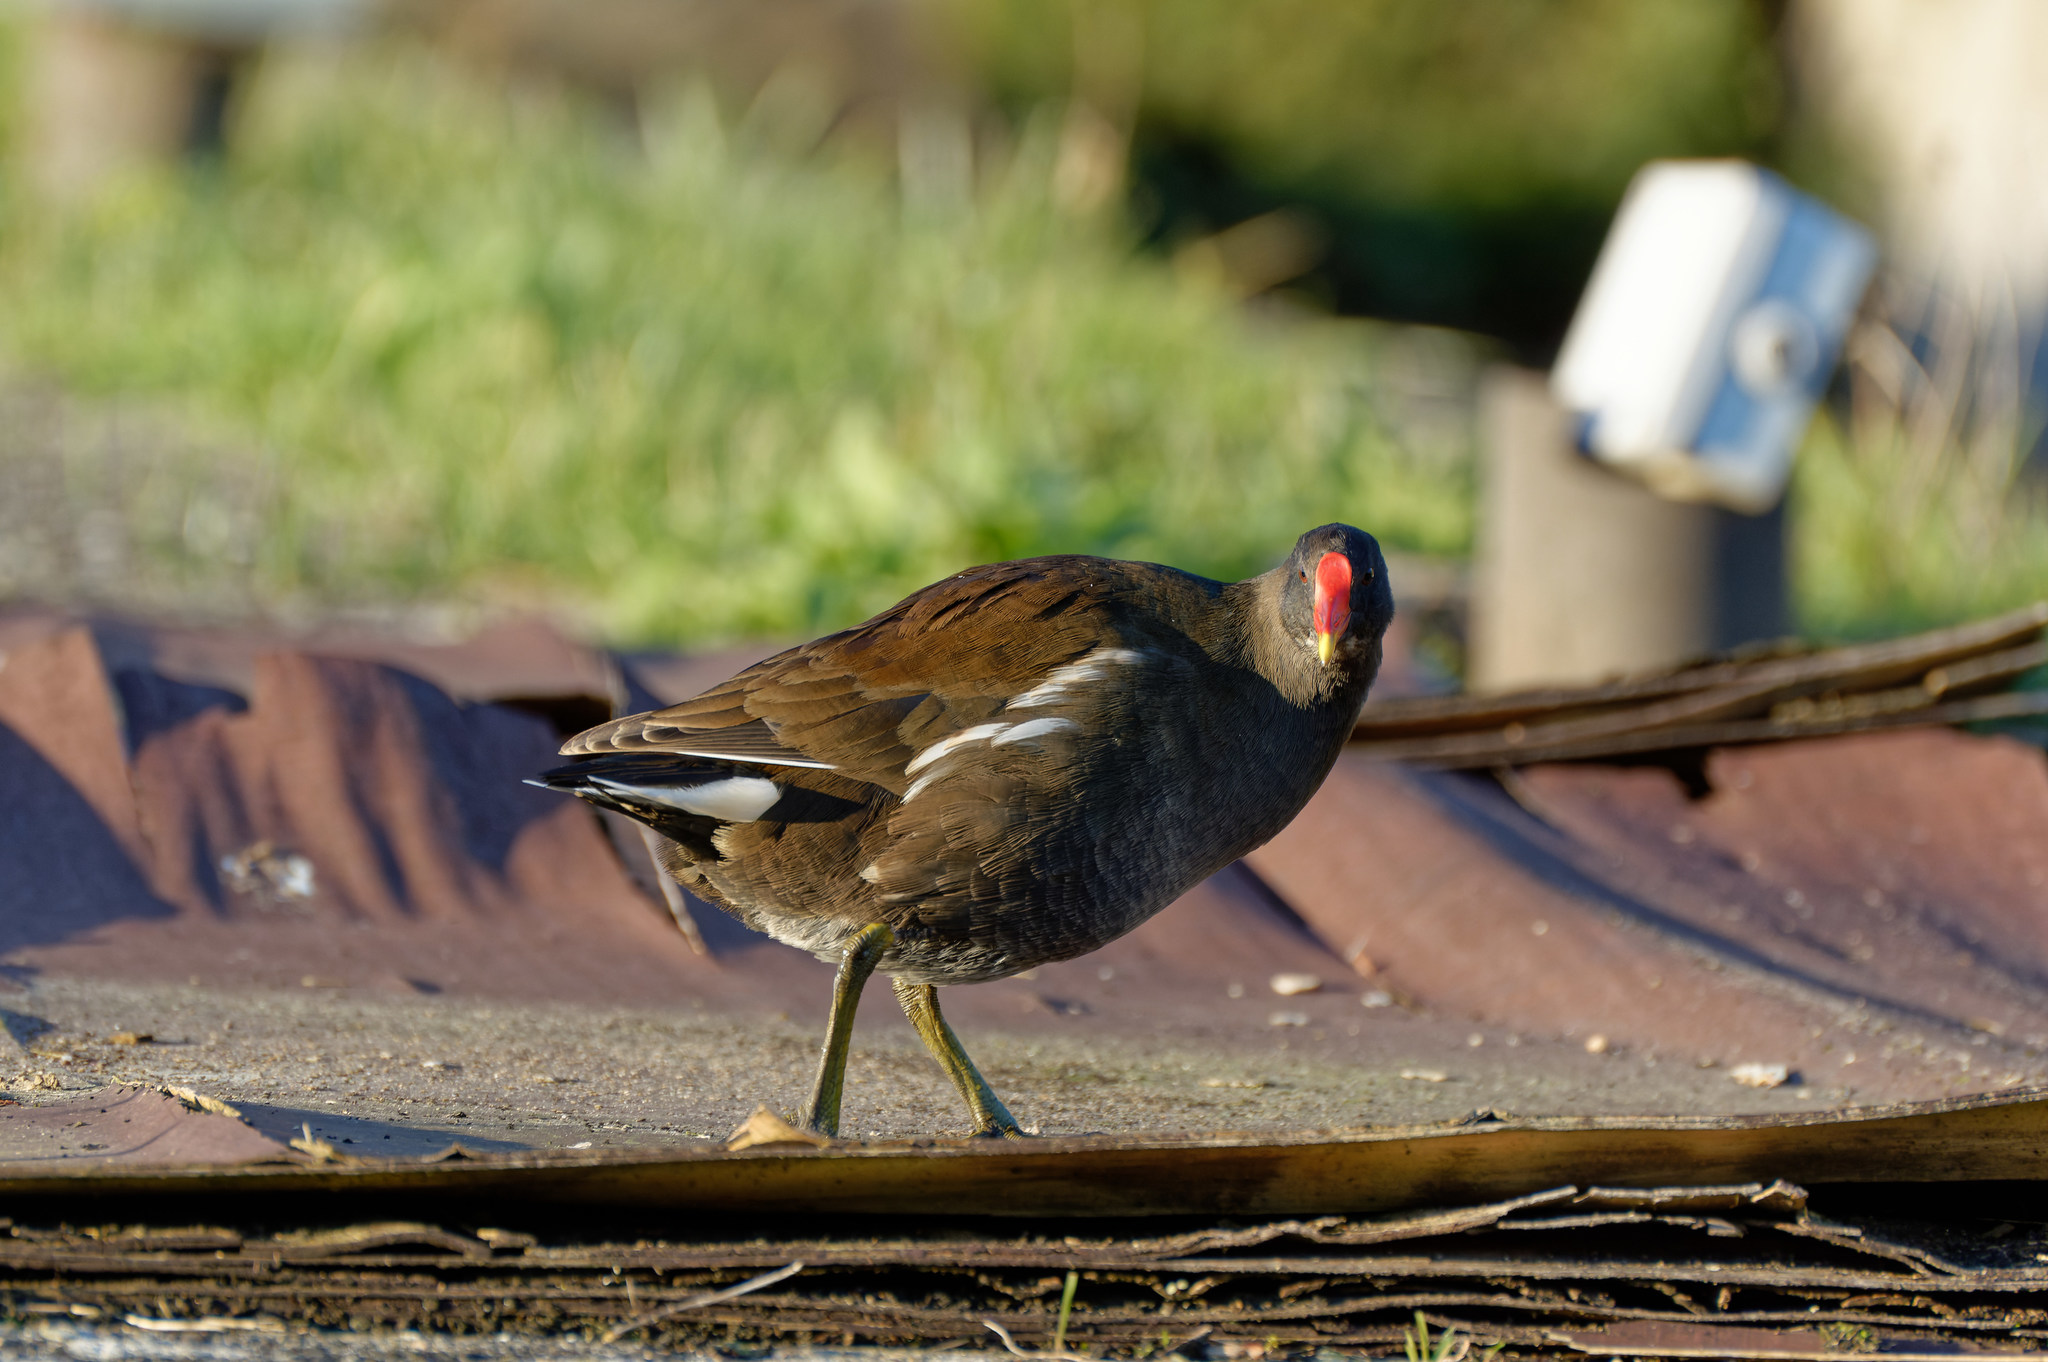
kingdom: Animalia
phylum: Chordata
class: Aves
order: Gruiformes
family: Rallidae
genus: Gallinula
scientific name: Gallinula chloropus
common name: Common moorhen
